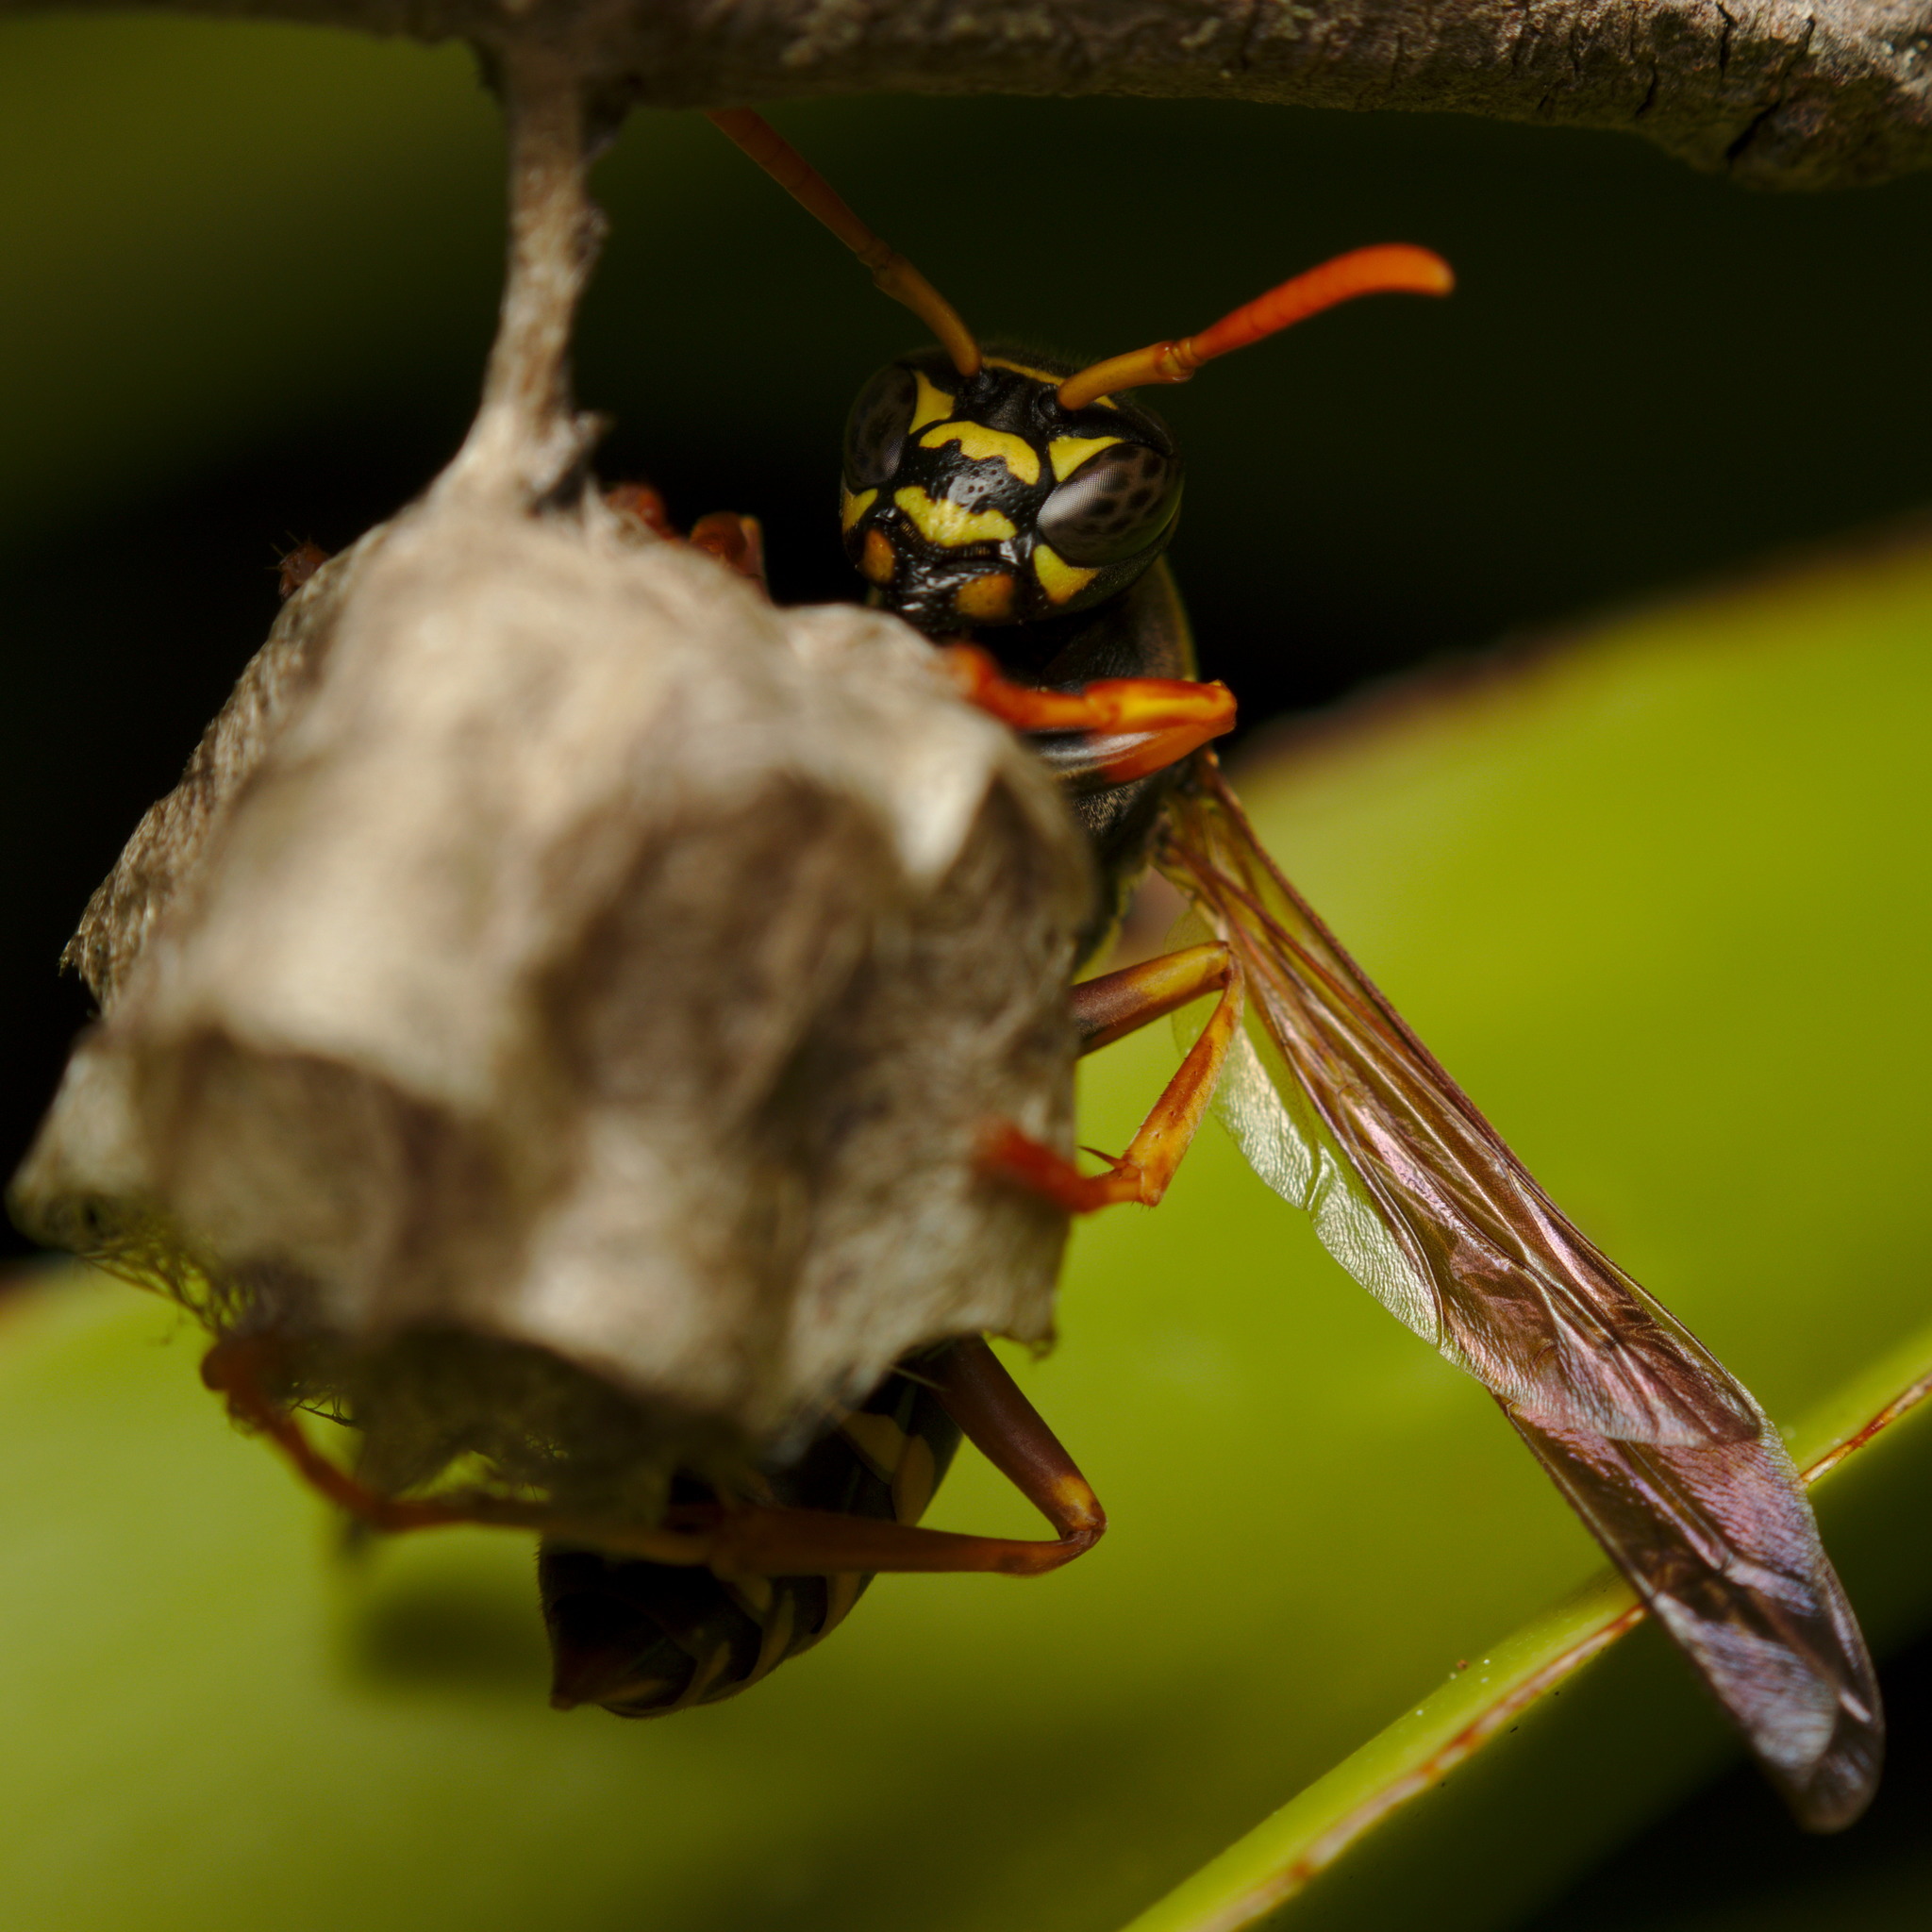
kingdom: Animalia
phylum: Arthropoda
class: Insecta
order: Hymenoptera
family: Eumenidae
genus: Polistes
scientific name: Polistes chinensis
